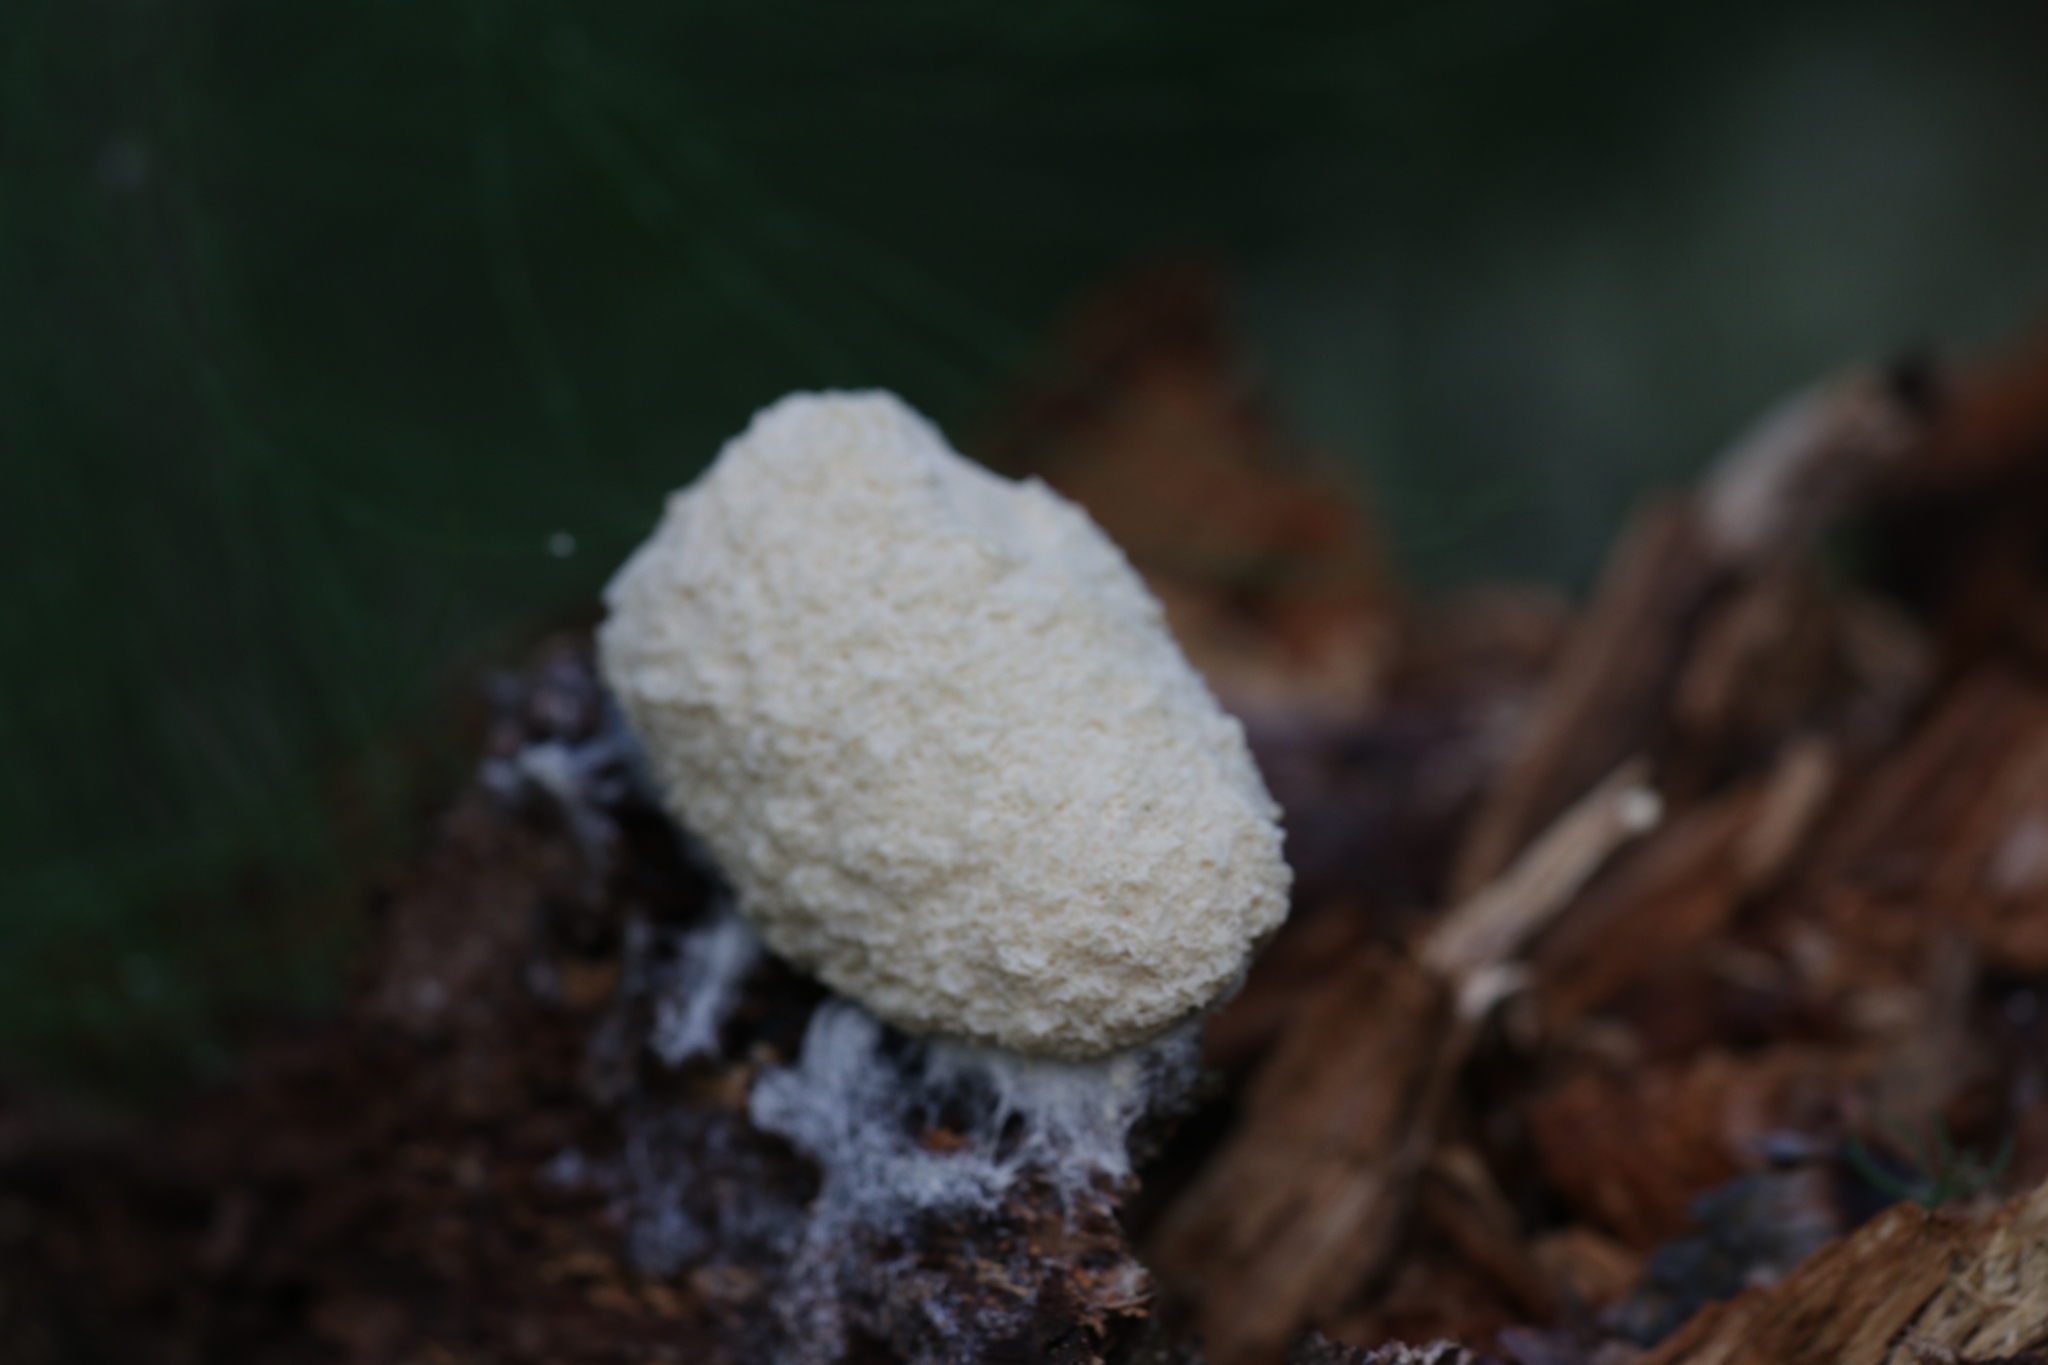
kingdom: Protozoa
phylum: Mycetozoa
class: Myxomycetes
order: Physarales
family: Physaraceae
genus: Fuligo
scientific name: Fuligo septica
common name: Dog vomit slime mold
